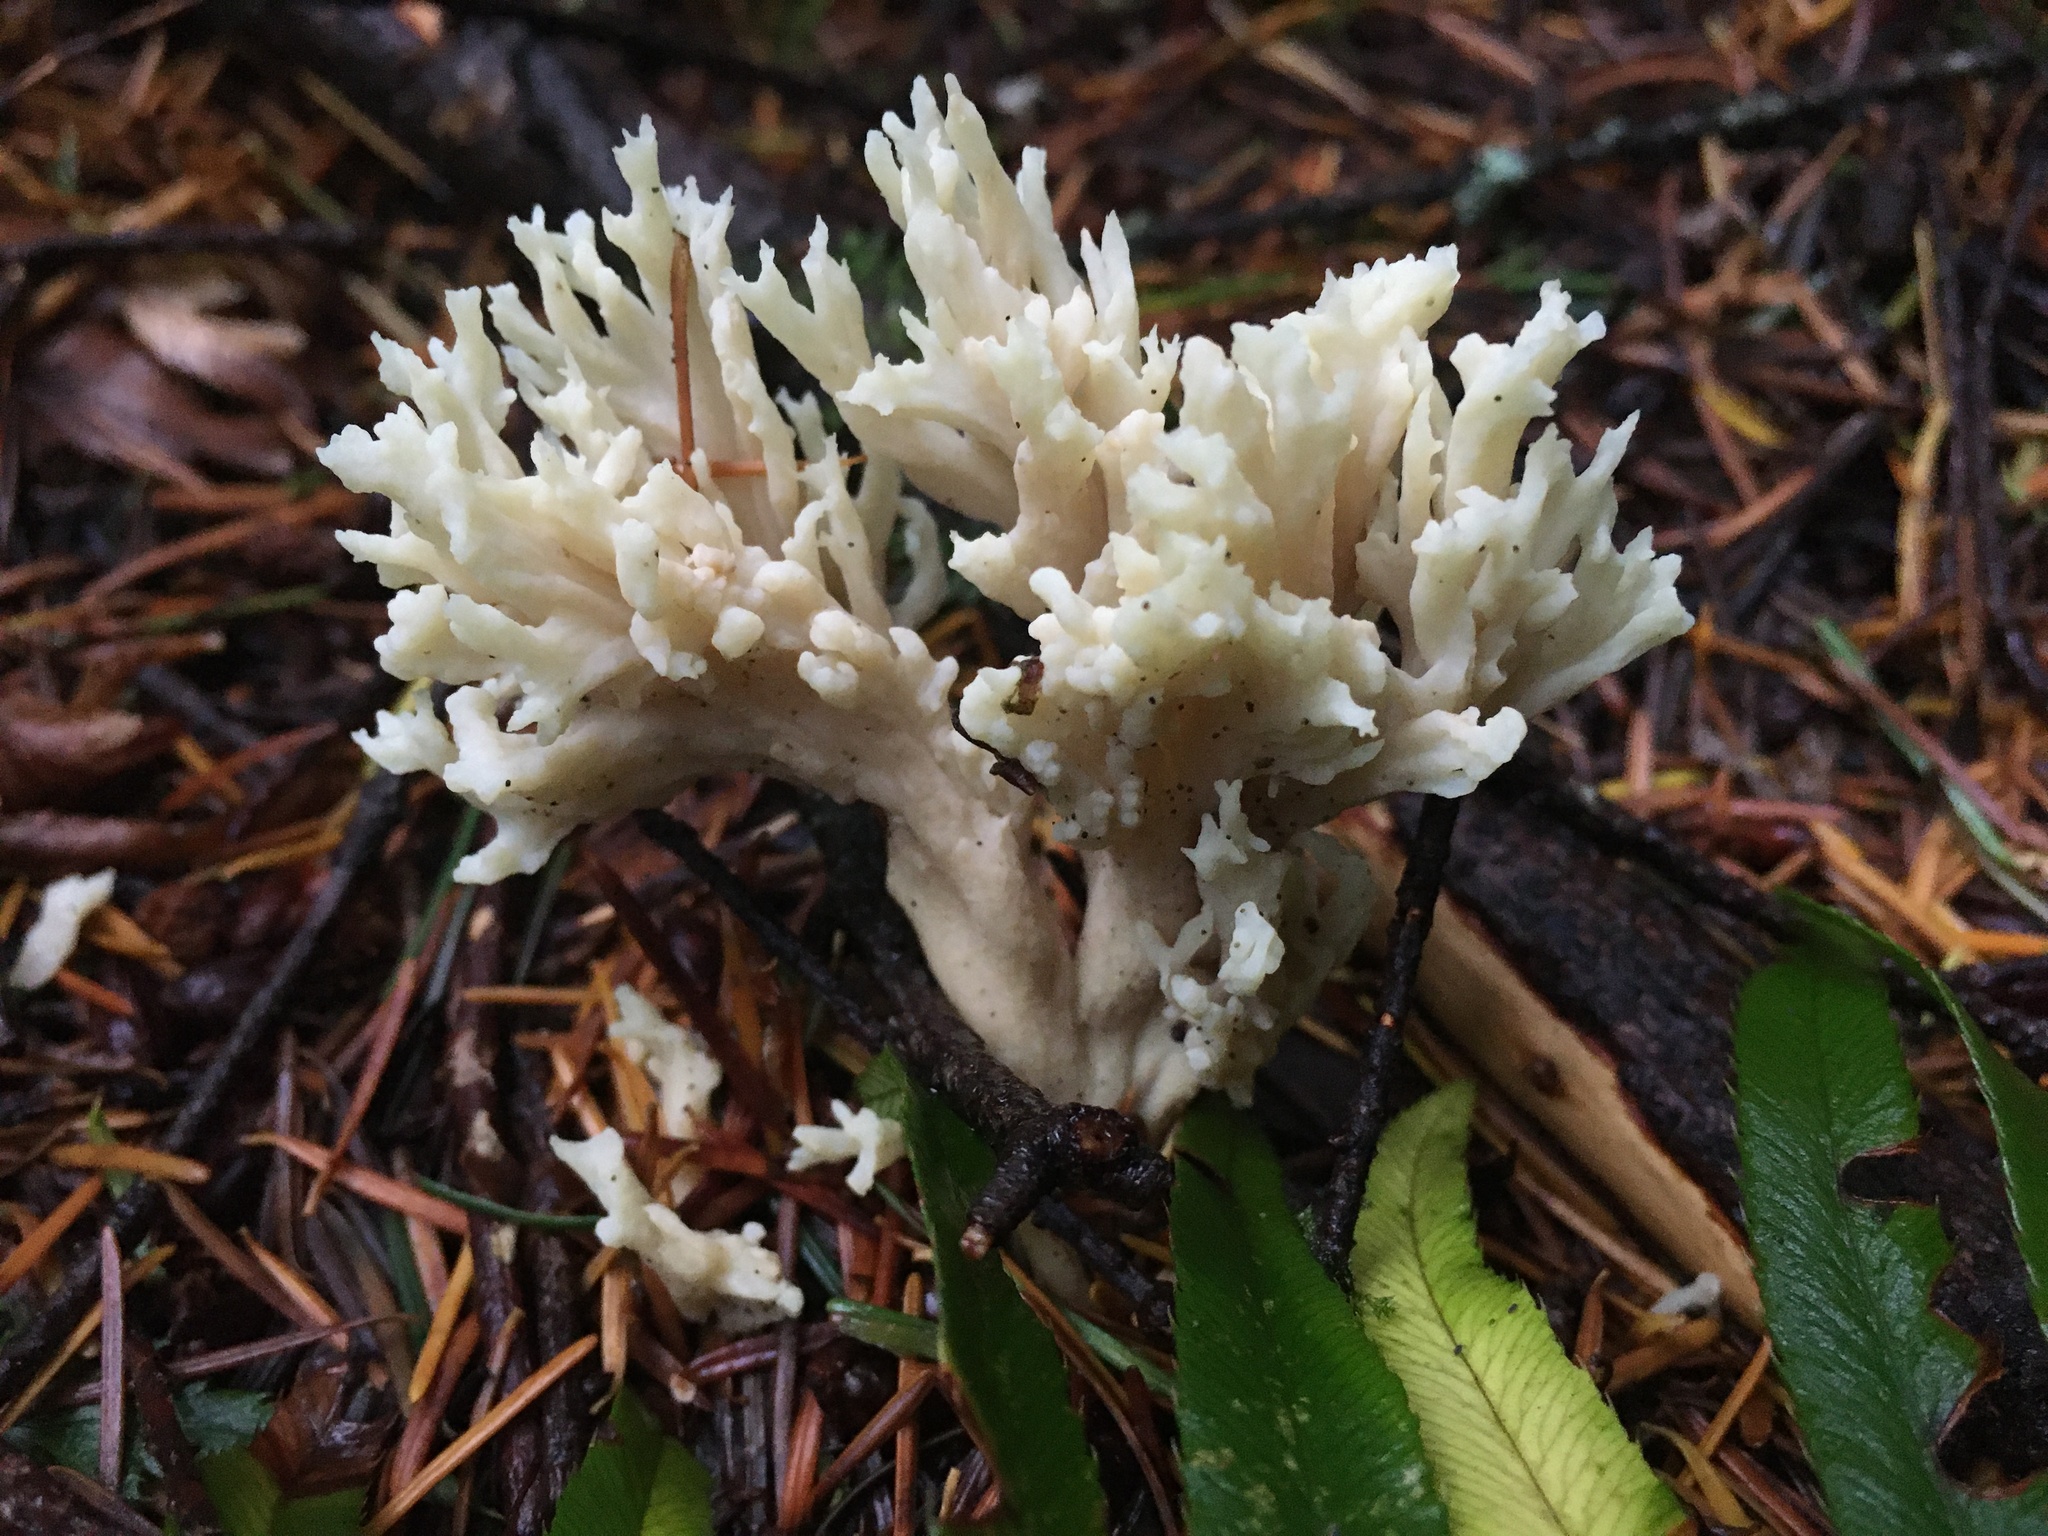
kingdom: Fungi
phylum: Basidiomycota
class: Agaricomycetes
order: Cantharellales
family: Hydnaceae
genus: Clavulina
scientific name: Clavulina coralloides
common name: Crested coral
